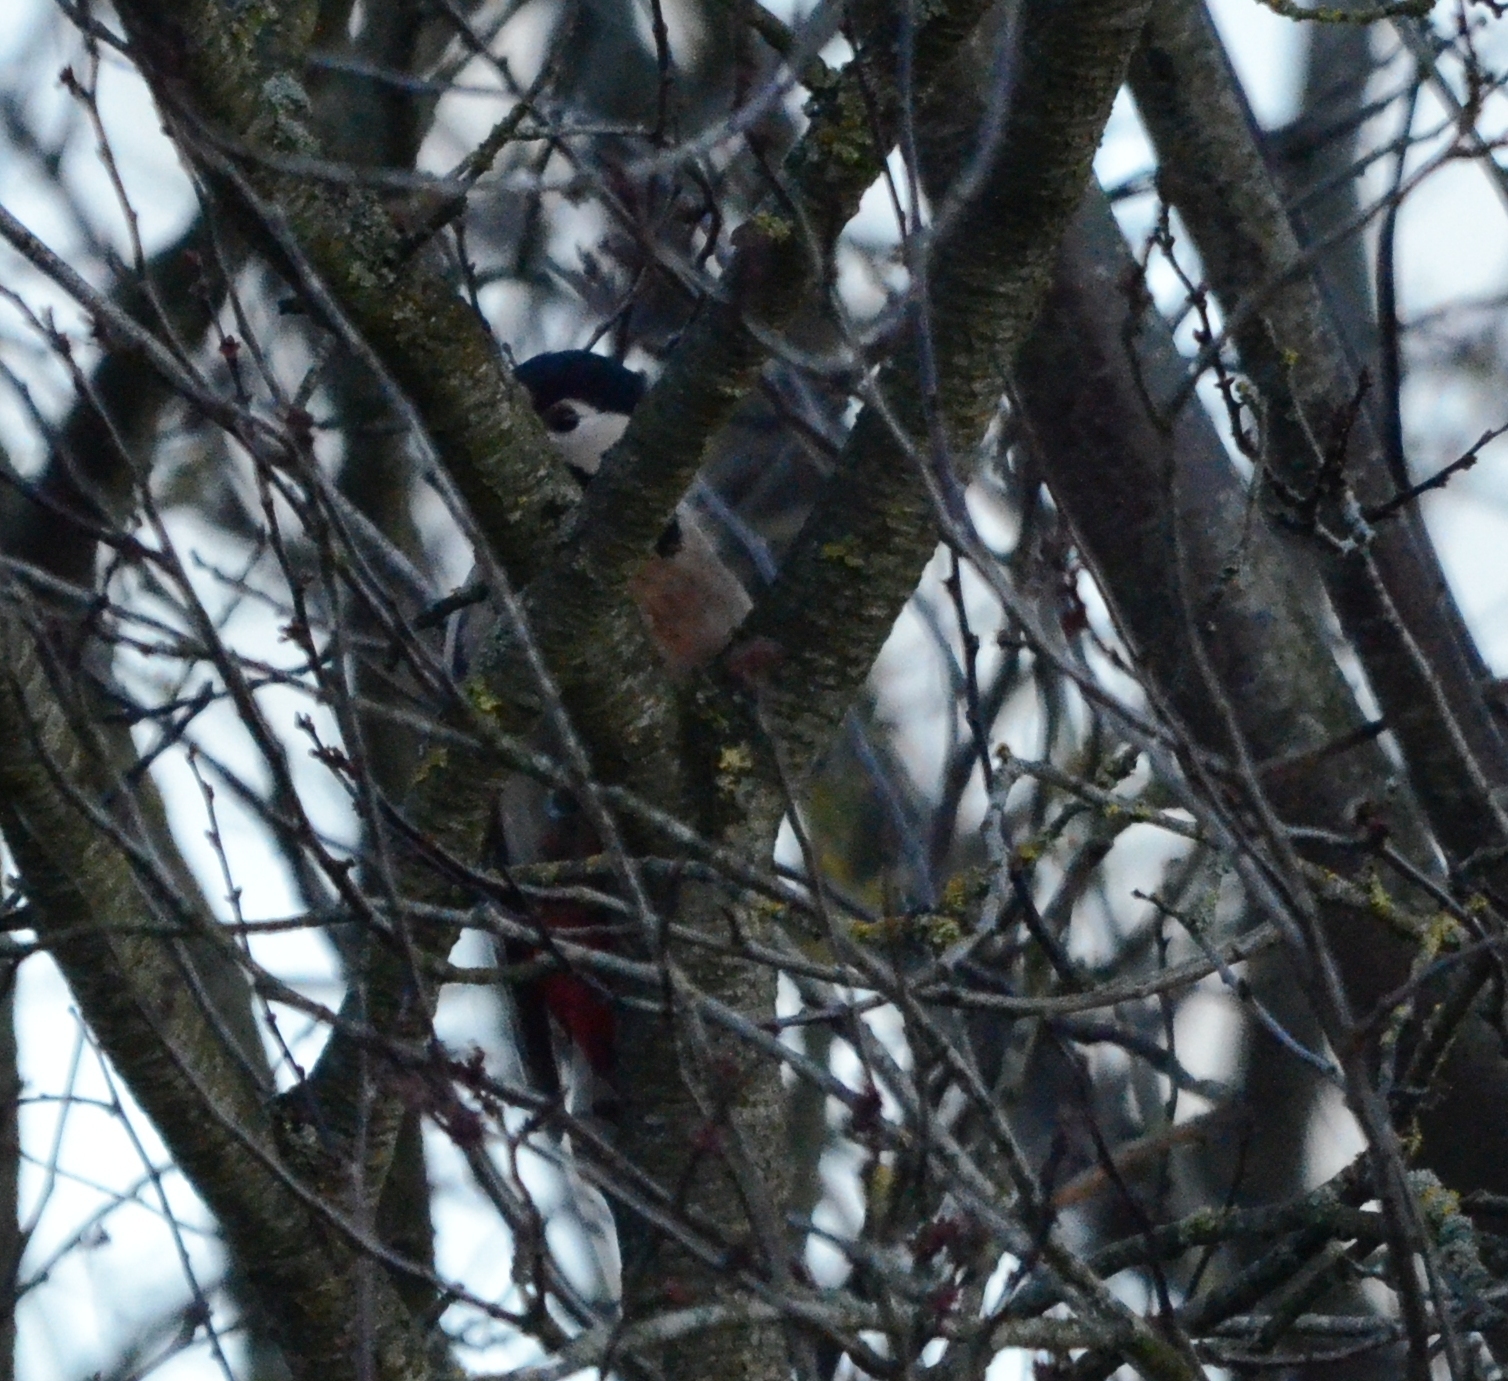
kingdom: Animalia
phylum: Chordata
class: Aves
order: Piciformes
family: Picidae
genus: Dendrocopos
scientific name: Dendrocopos major
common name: Great spotted woodpecker
